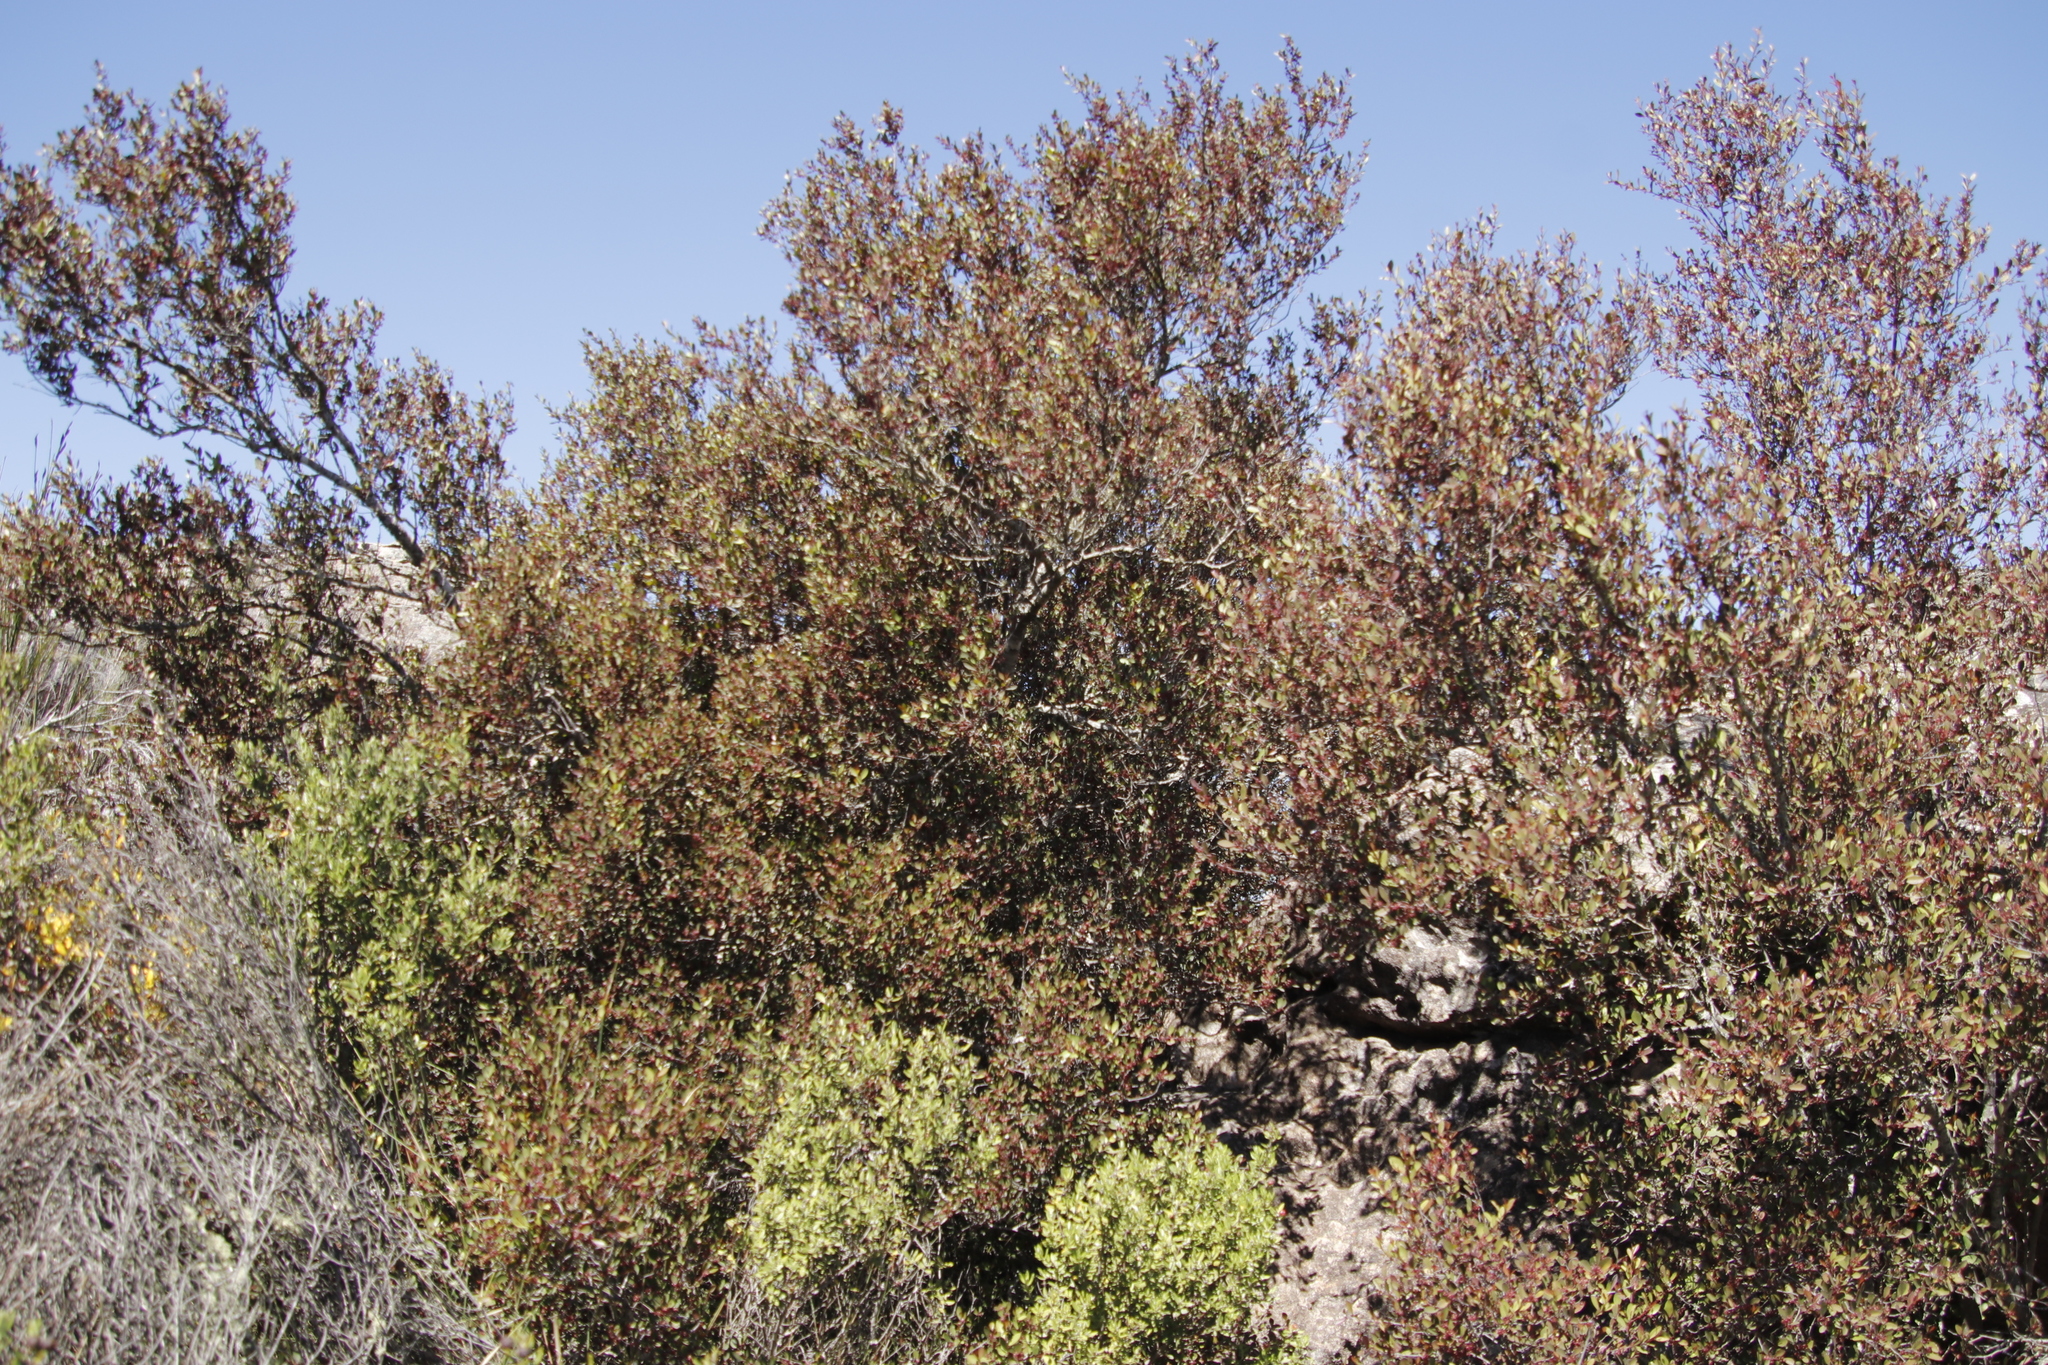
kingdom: Plantae
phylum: Tracheophyta
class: Magnoliopsida
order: Celastrales
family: Celastraceae
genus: Gymnosporia
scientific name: Gymnosporia acuminata
